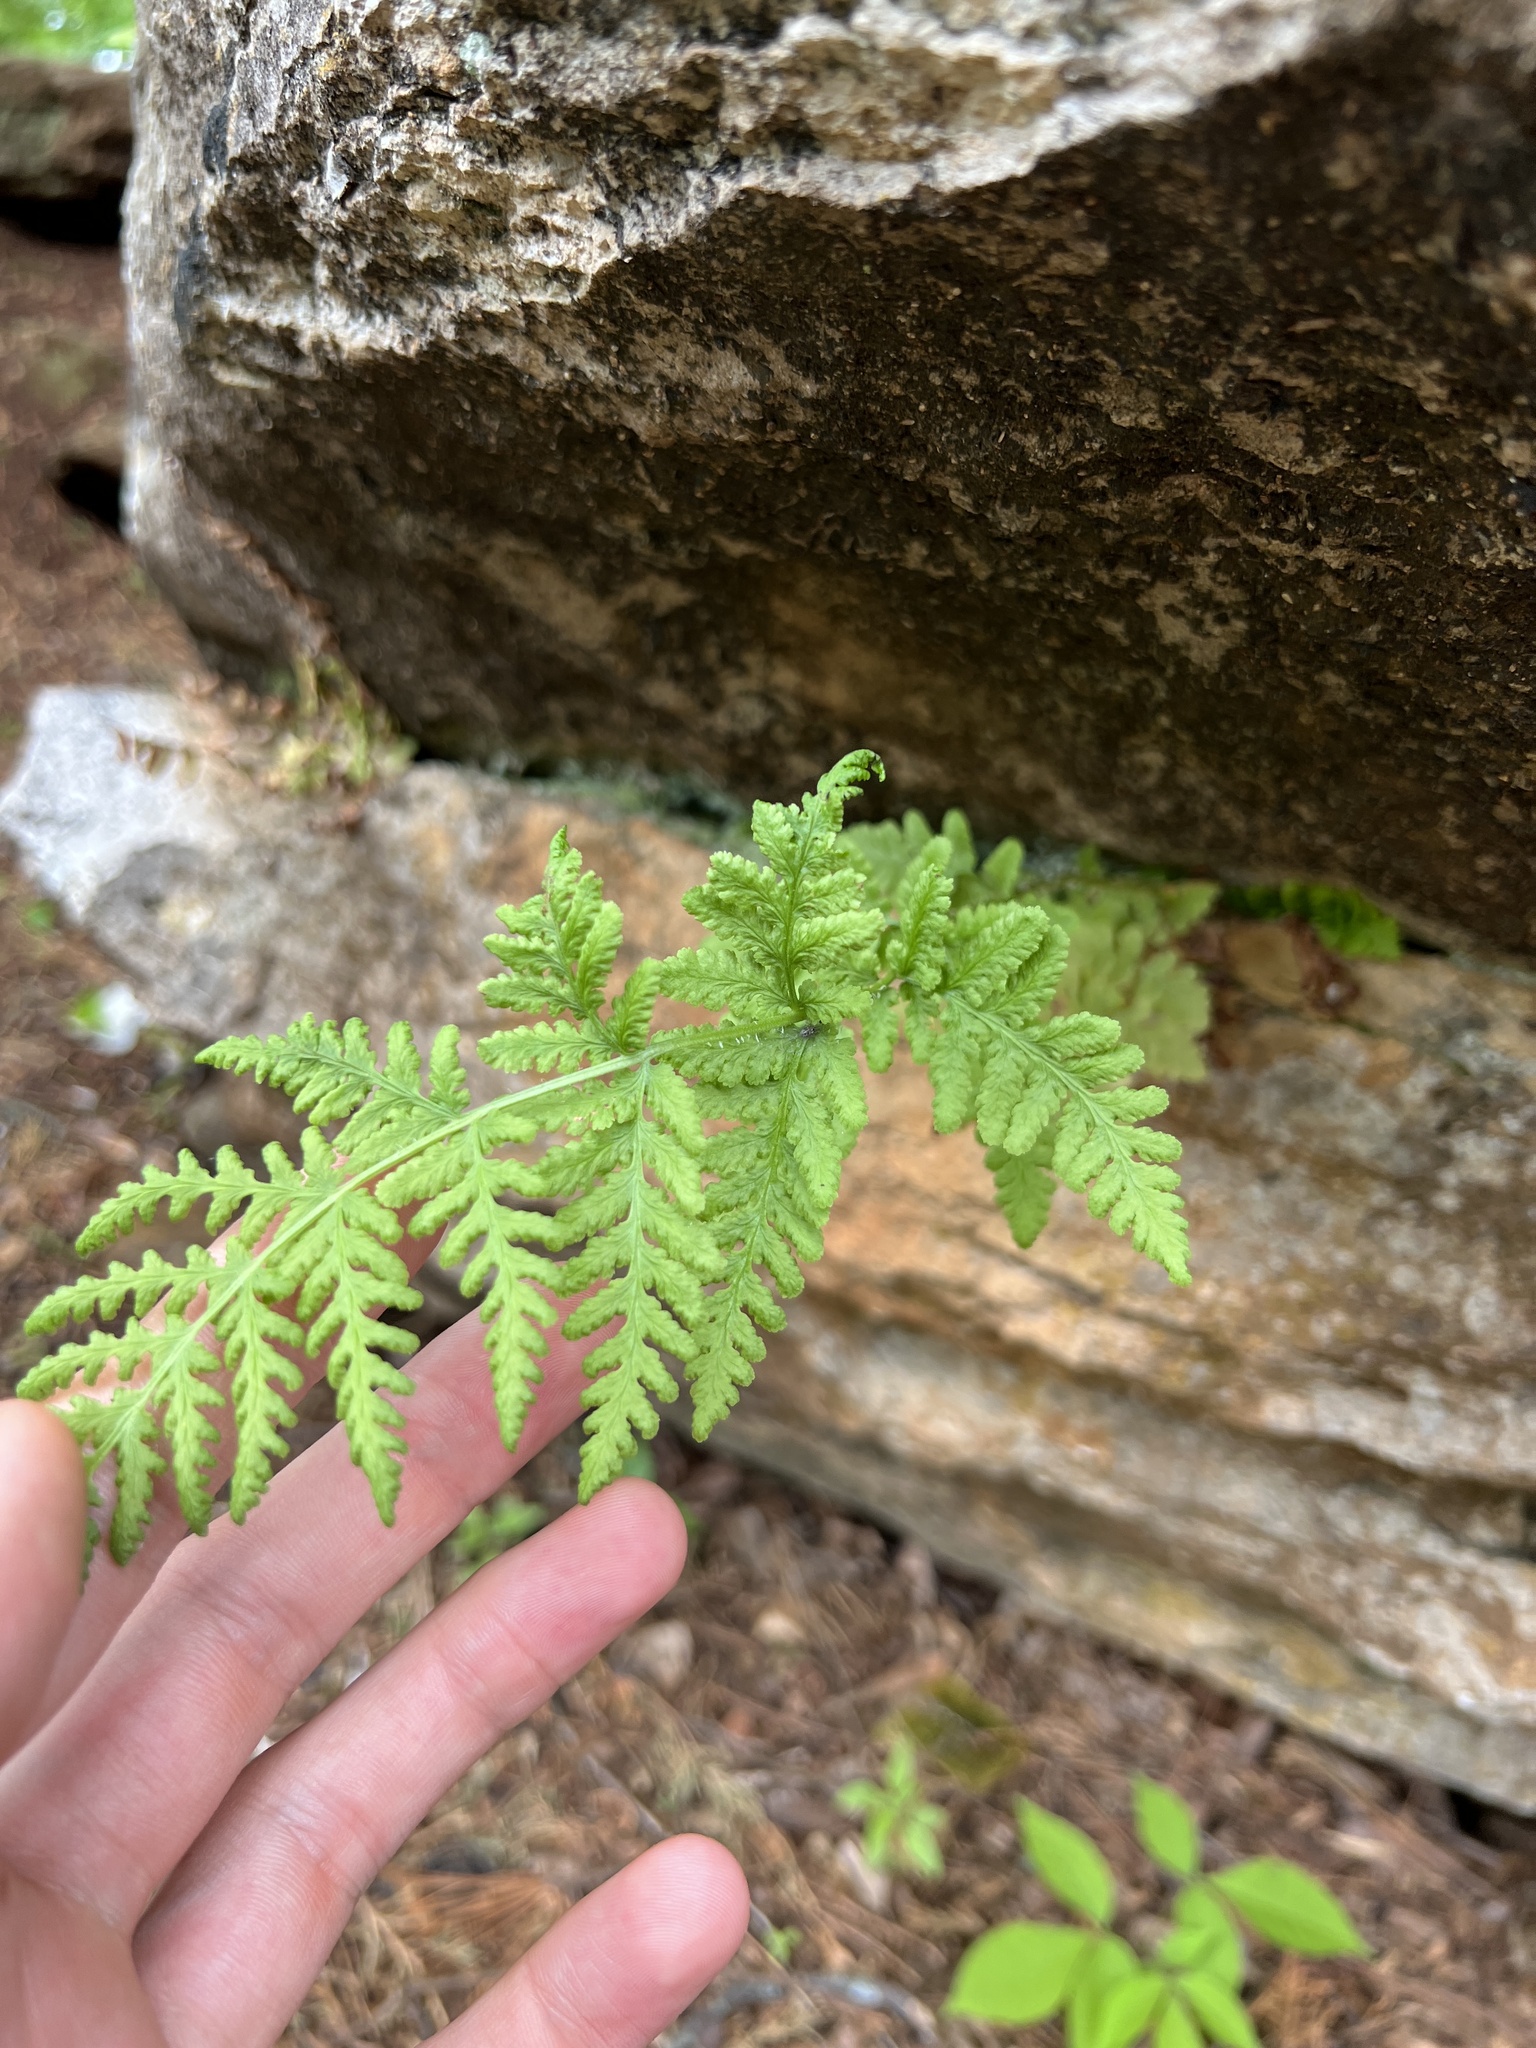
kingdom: Plantae
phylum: Tracheophyta
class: Polypodiopsida
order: Polypodiales
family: Woodsiaceae
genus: Physematium
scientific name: Physematium obtusum
